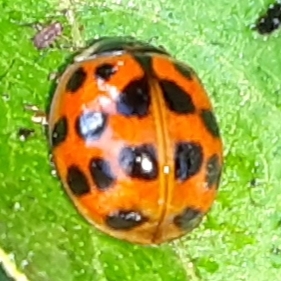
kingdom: Animalia
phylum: Arthropoda
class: Insecta
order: Coleoptera
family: Coccinellidae
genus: Harmonia
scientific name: Harmonia axyridis
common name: Harlequin ladybird
